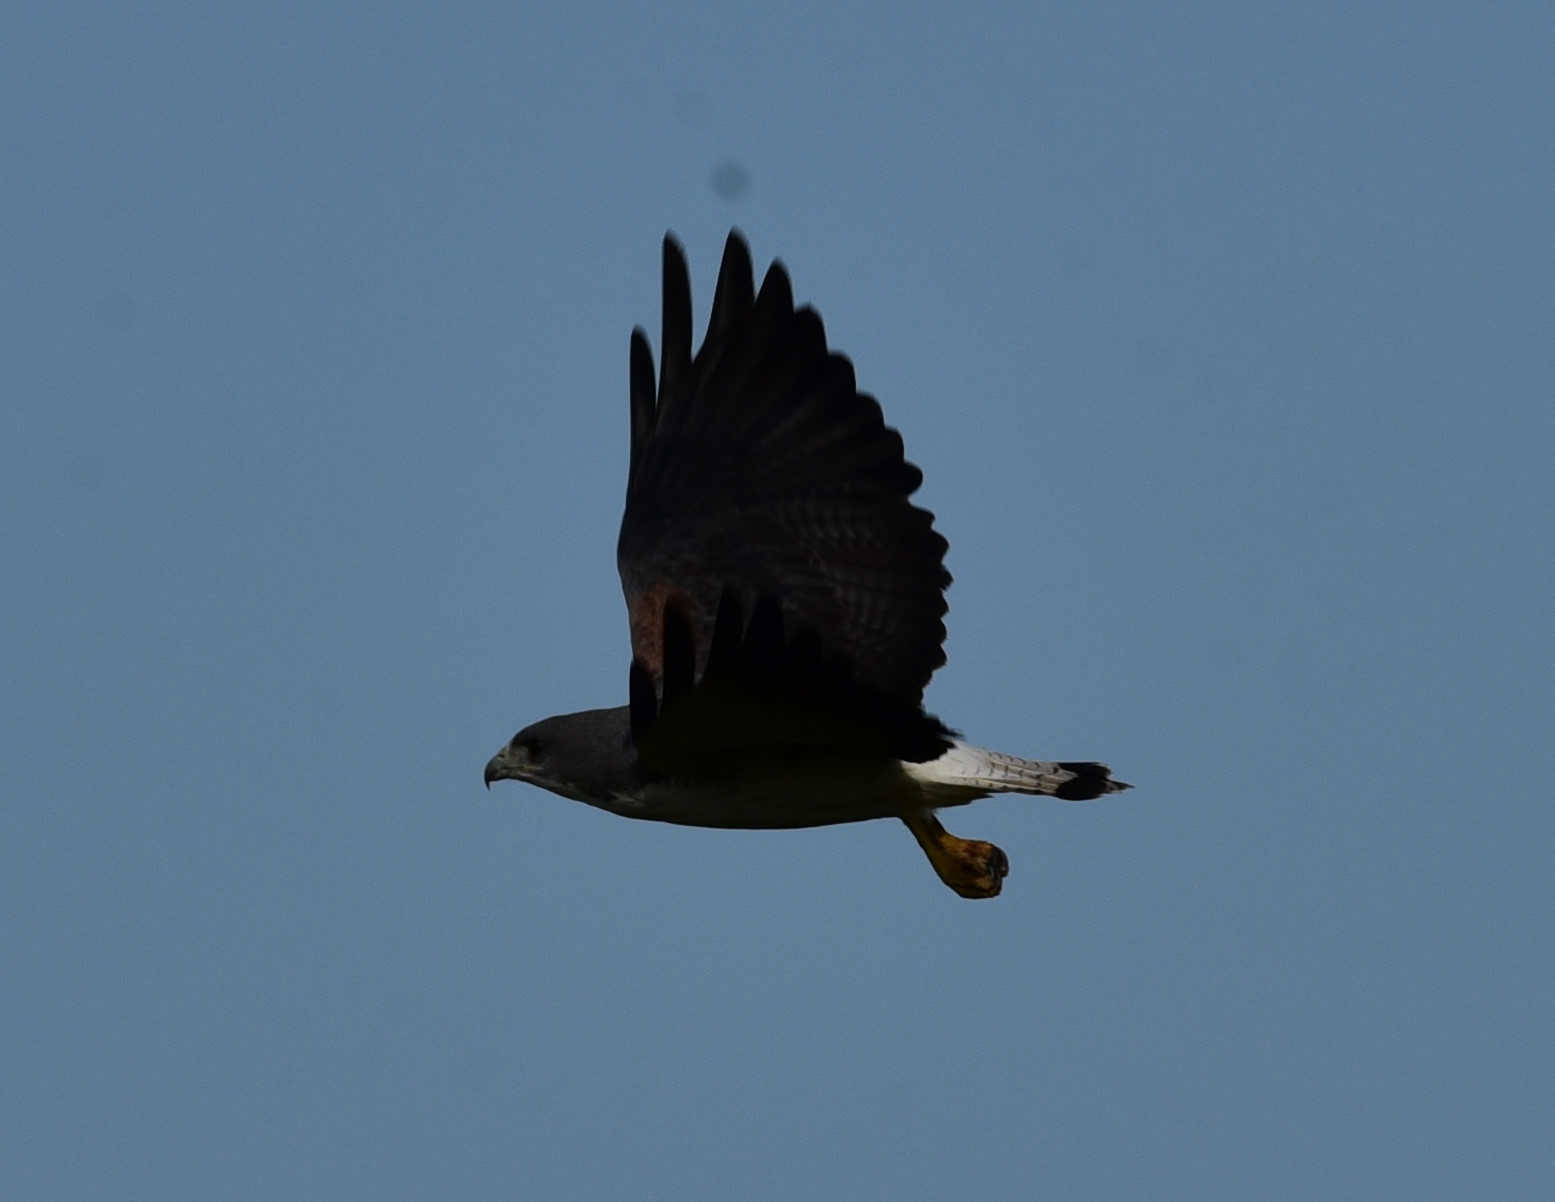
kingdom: Animalia
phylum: Chordata
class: Aves
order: Accipitriformes
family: Accipitridae
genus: Buteo
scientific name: Buteo albicaudatus
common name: White-tailed hawk
